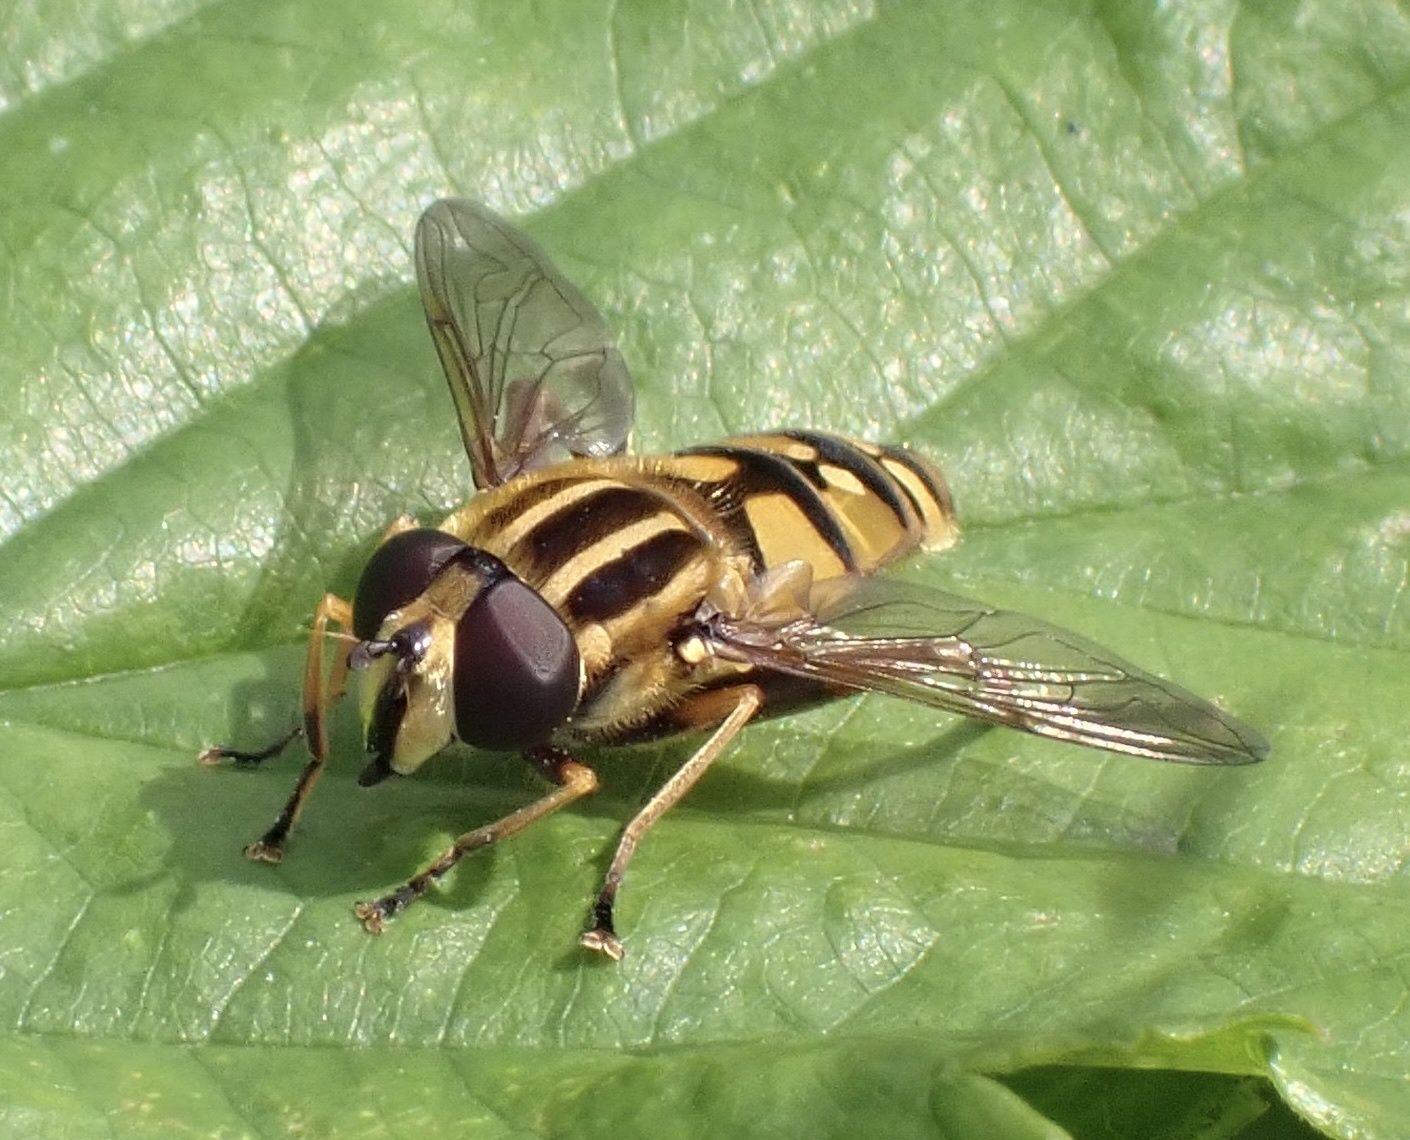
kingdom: Animalia
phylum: Arthropoda
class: Insecta
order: Diptera
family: Syrphidae
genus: Helophilus
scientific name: Helophilus pendulus
